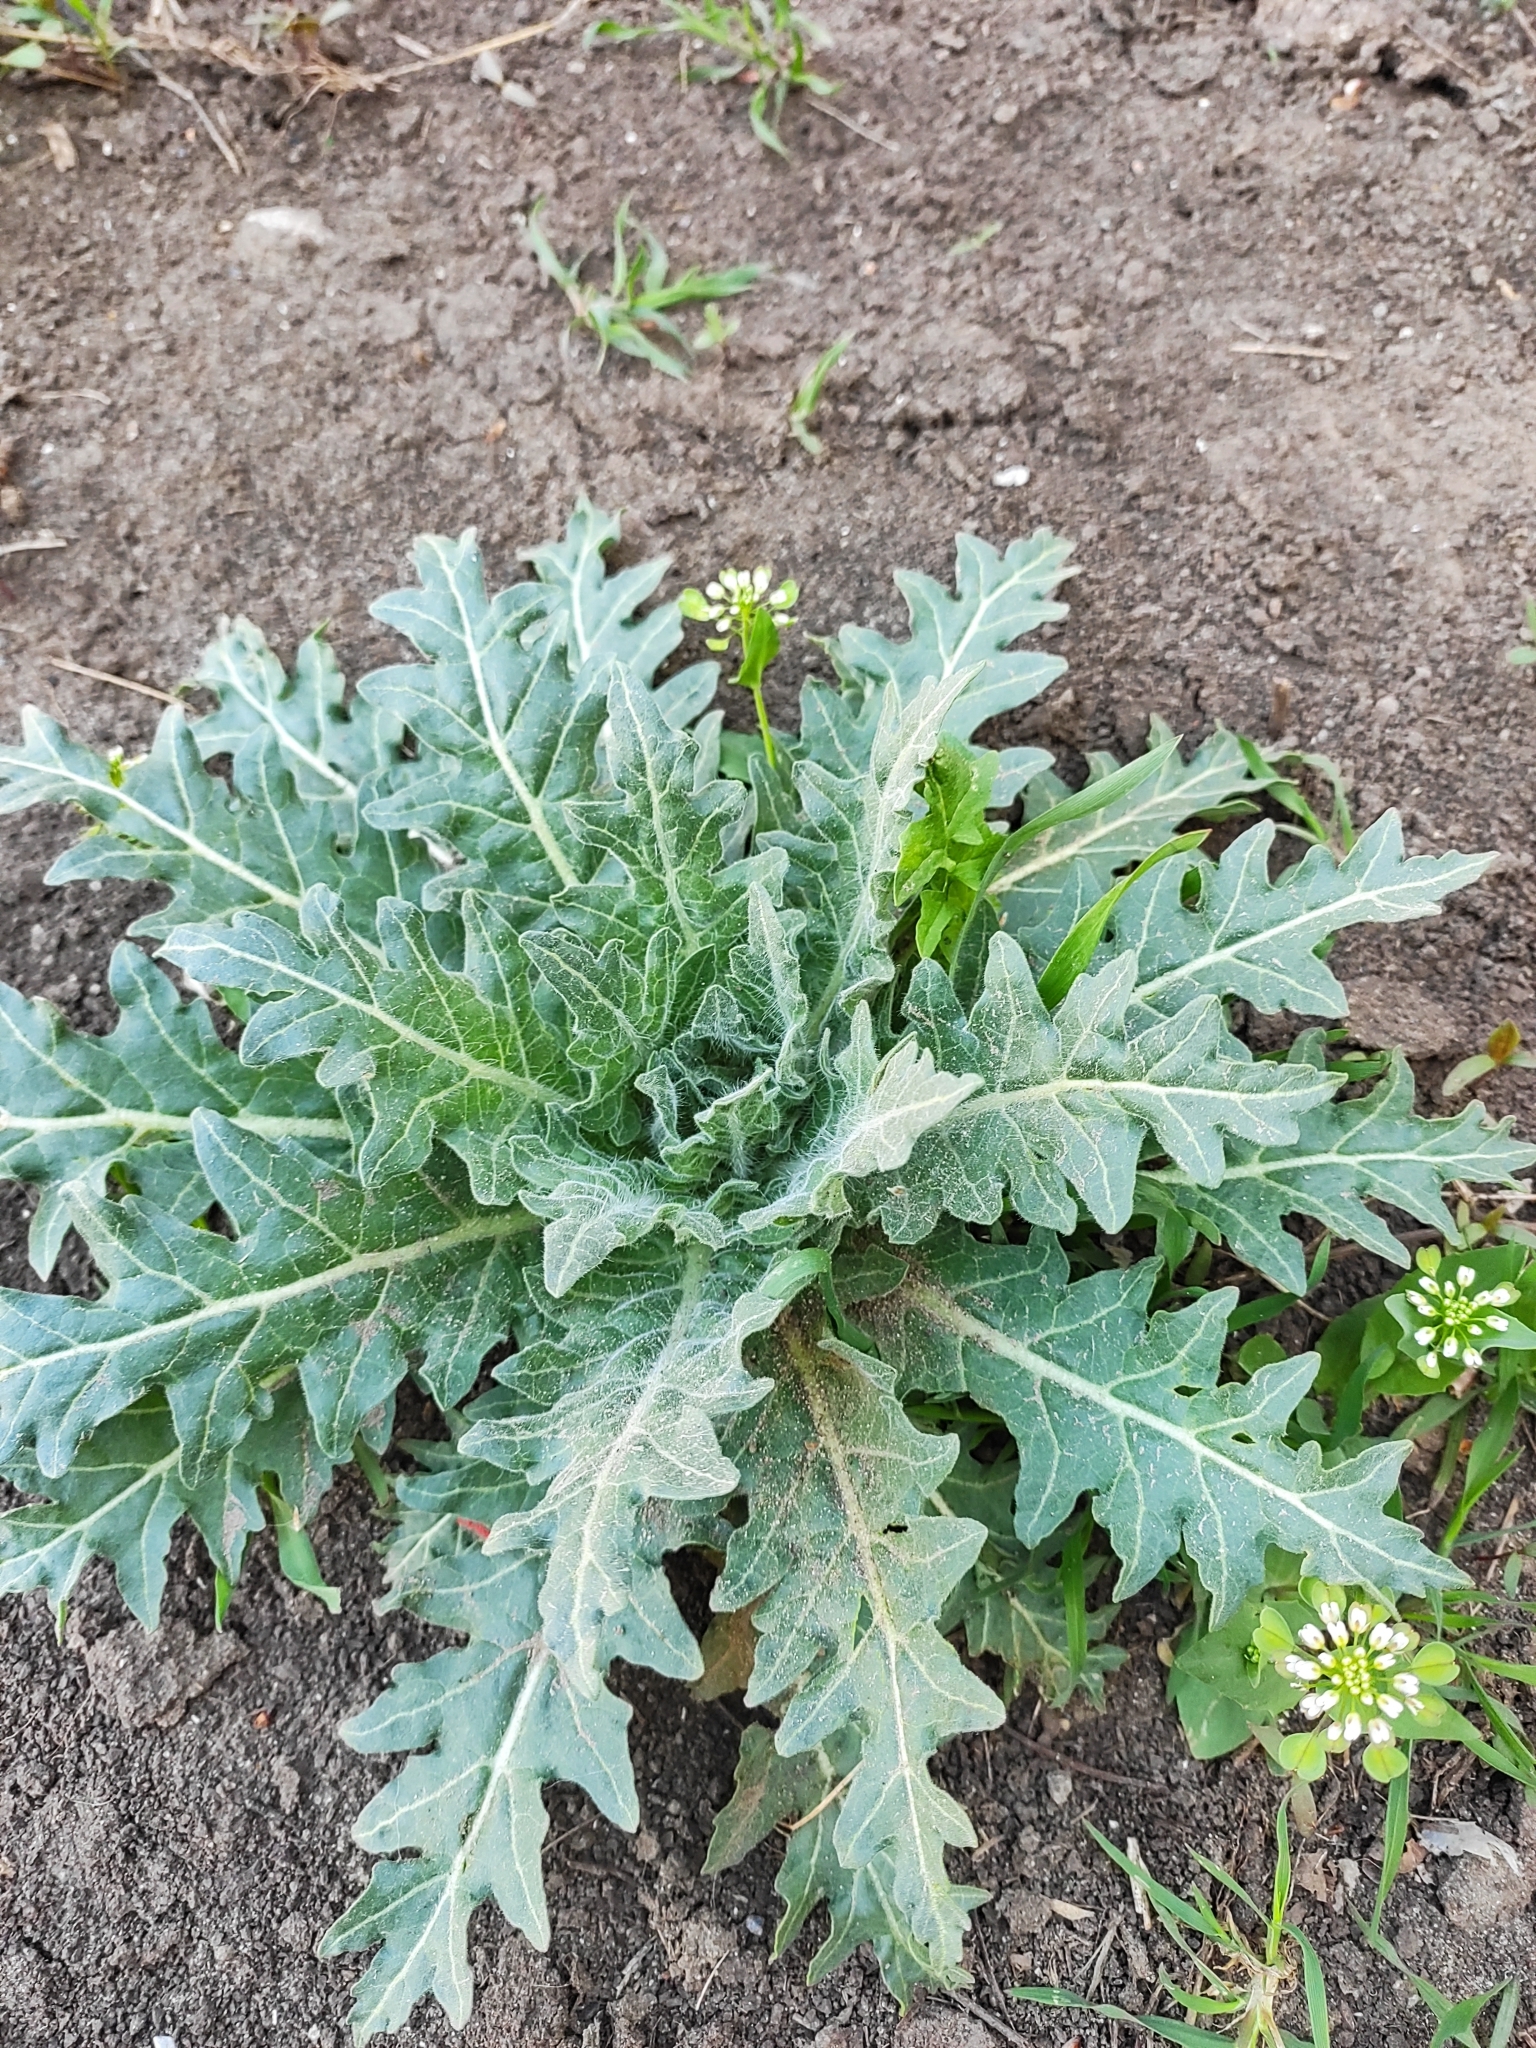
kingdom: Plantae
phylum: Tracheophyta
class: Magnoliopsida
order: Solanales
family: Solanaceae
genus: Hyoscyamus
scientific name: Hyoscyamus niger
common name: Henbane
